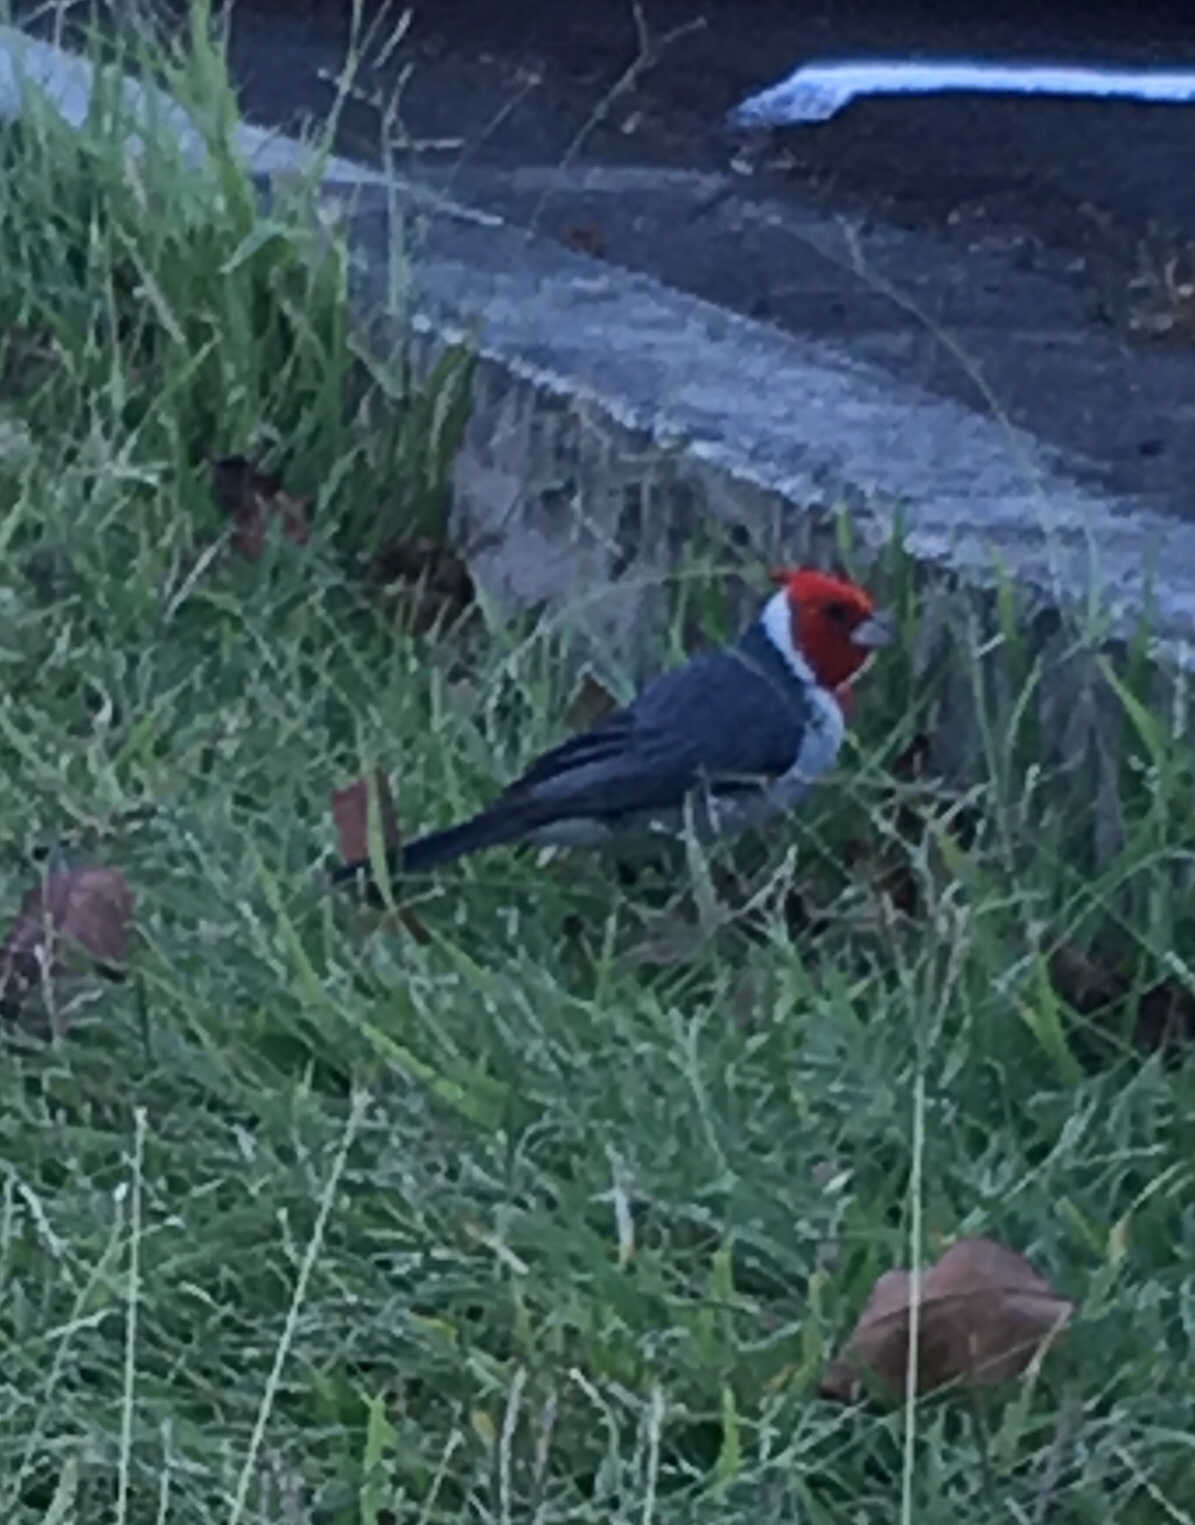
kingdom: Animalia
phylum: Chordata
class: Aves
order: Passeriformes
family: Thraupidae
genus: Paroaria
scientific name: Paroaria coronata
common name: Red-crested cardinal
